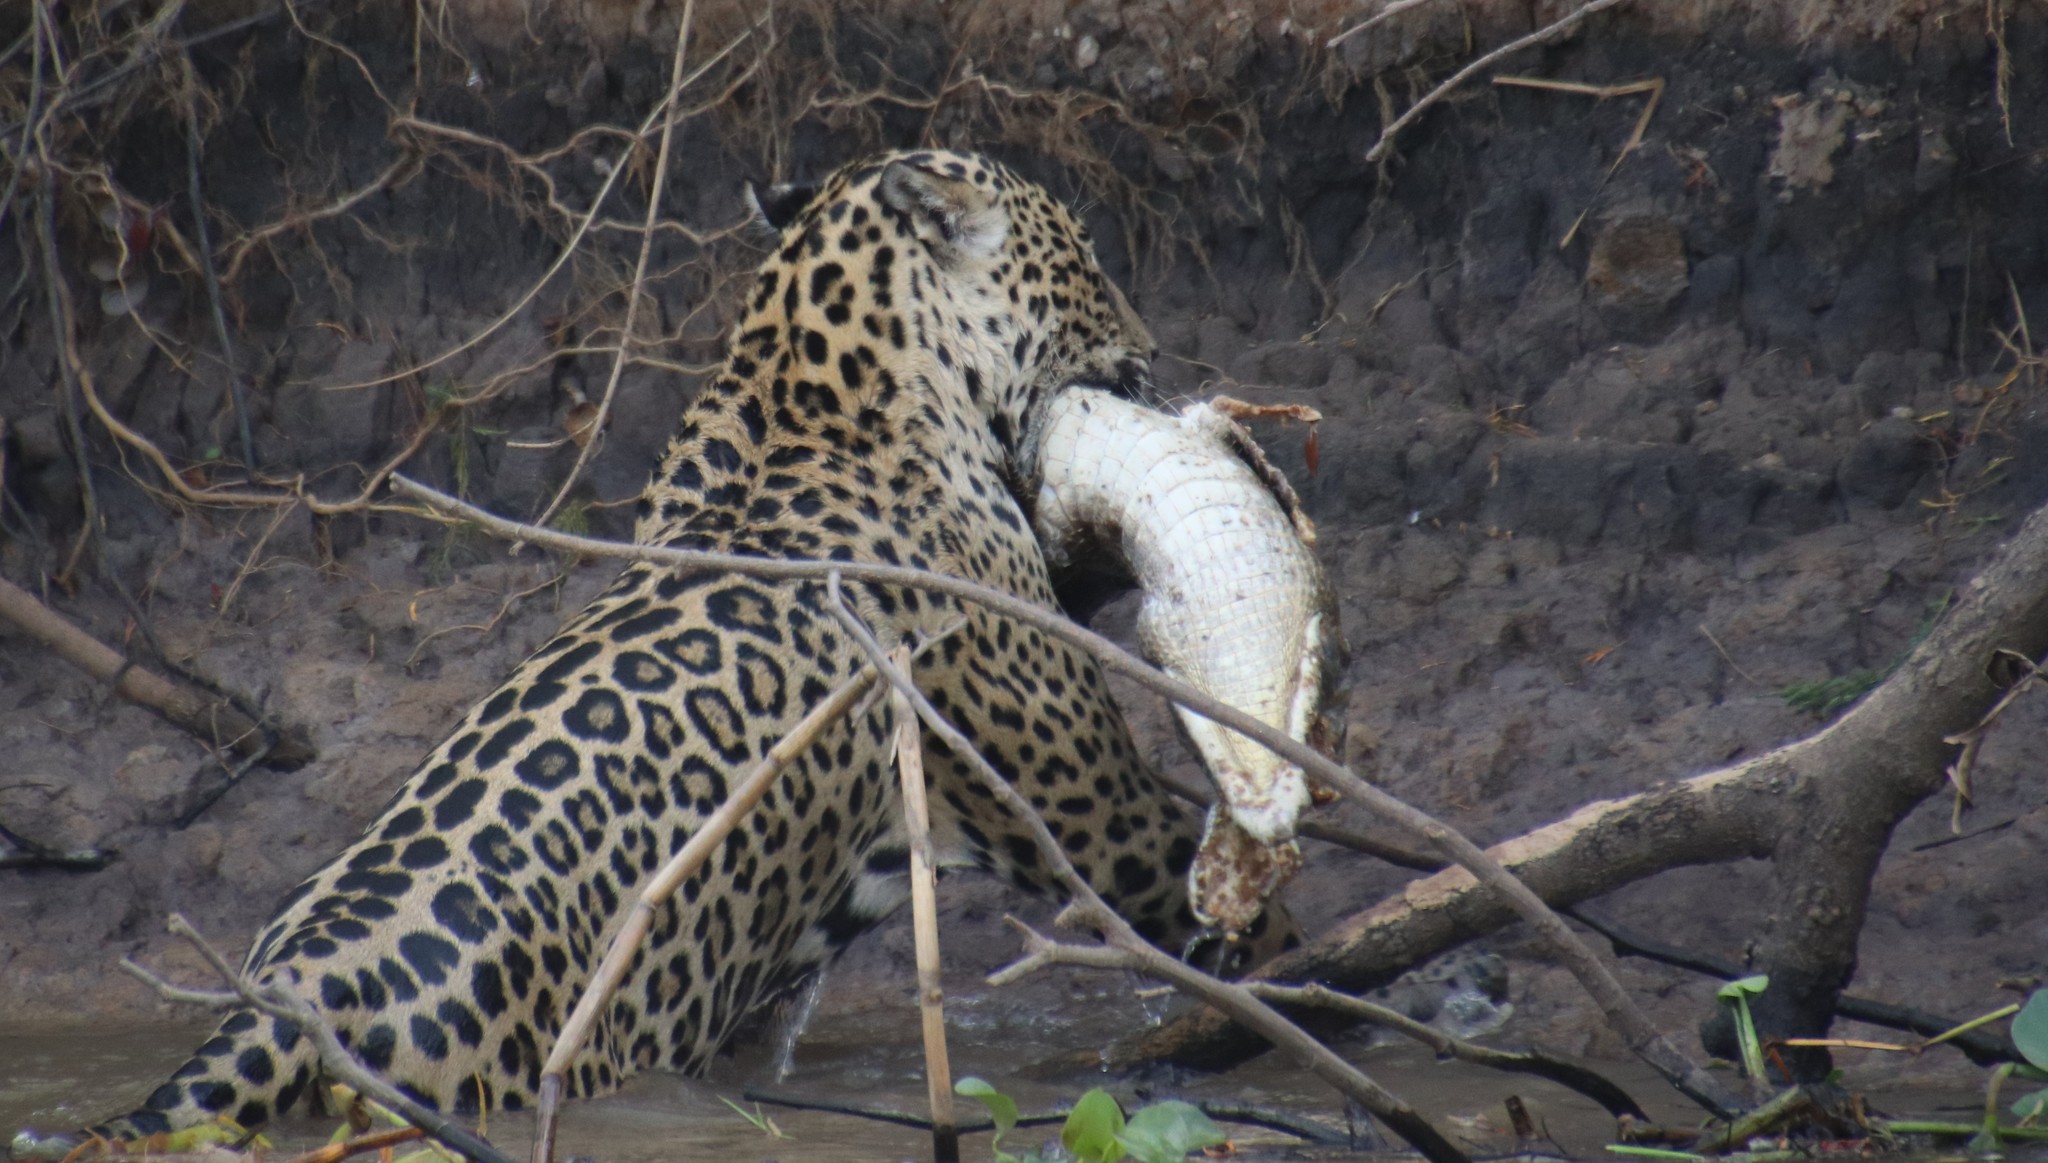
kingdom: Animalia
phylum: Chordata
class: Mammalia
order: Carnivora
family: Felidae
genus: Panthera
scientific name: Panthera onca
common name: Jaguar
